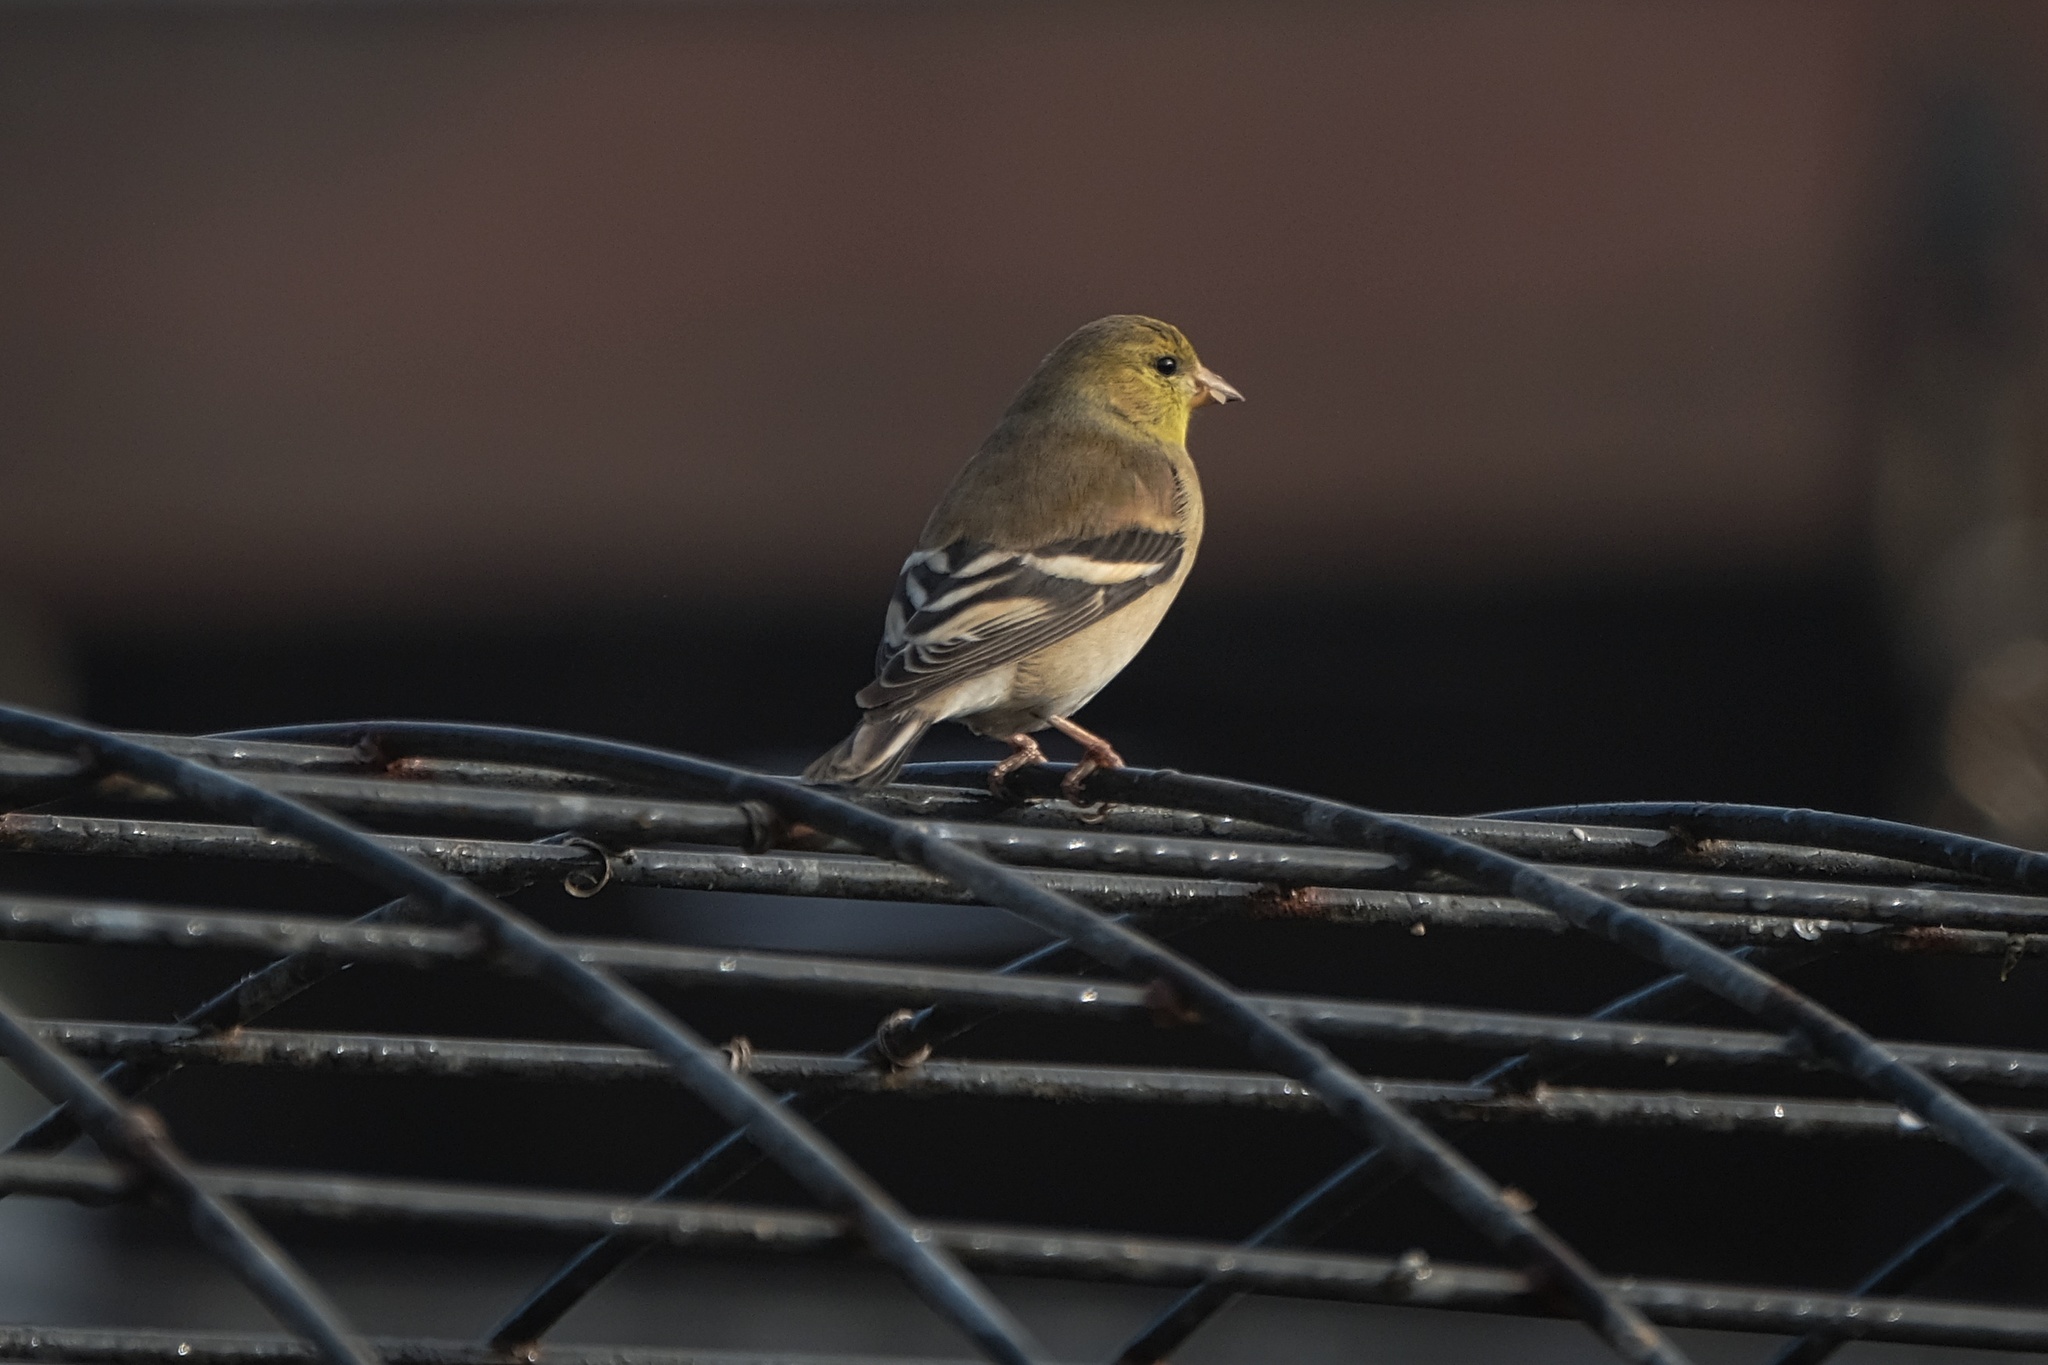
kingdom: Animalia
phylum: Chordata
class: Aves
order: Passeriformes
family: Fringillidae
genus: Spinus
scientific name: Spinus tristis
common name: American goldfinch
